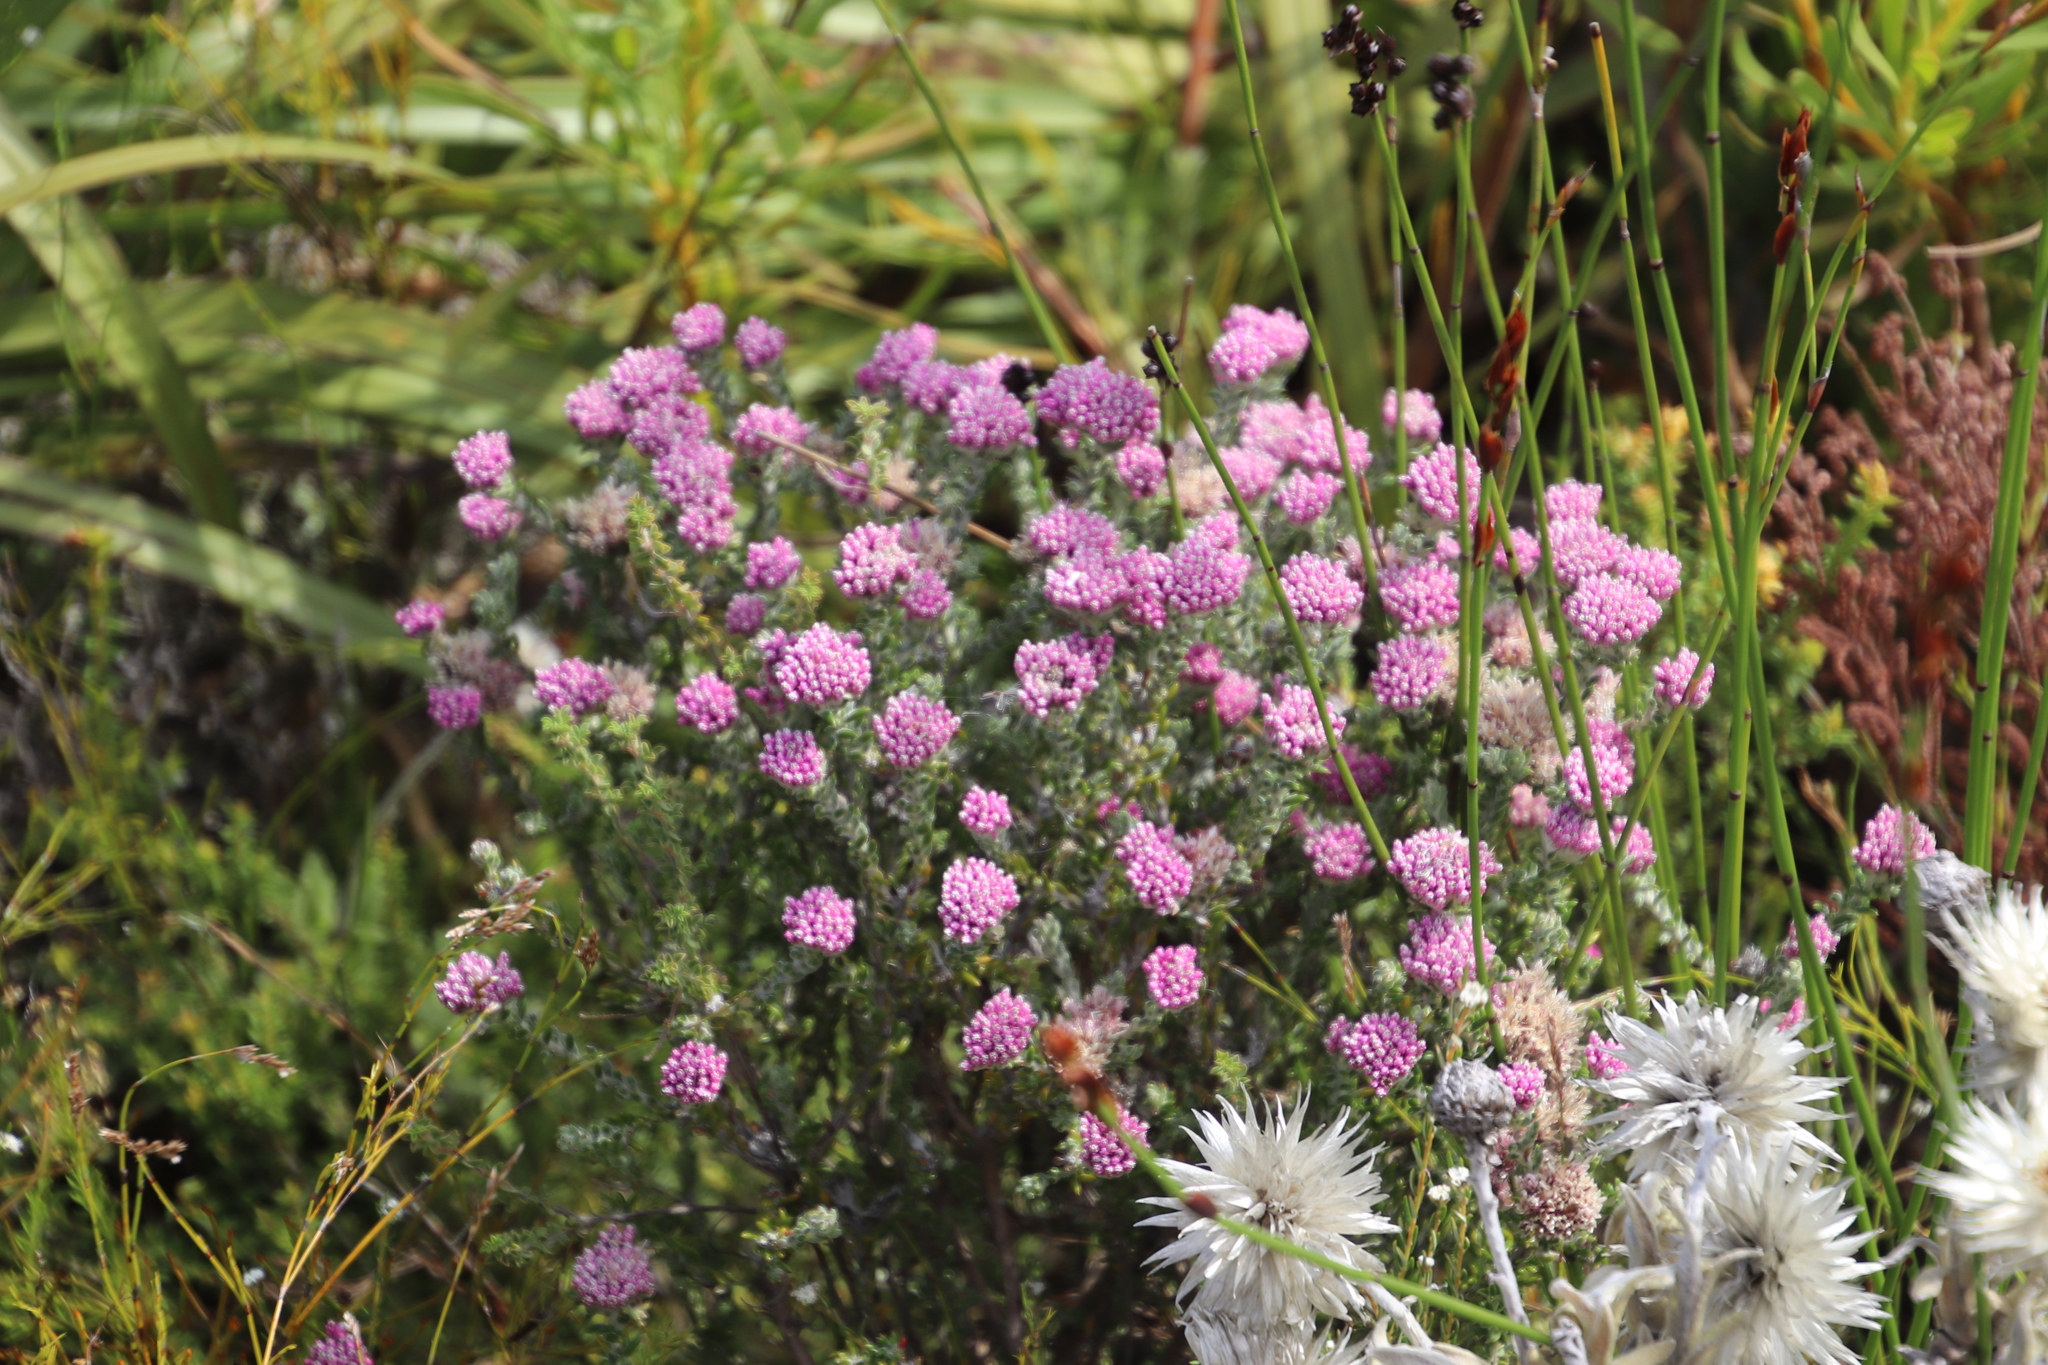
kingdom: Plantae
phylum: Tracheophyta
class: Magnoliopsida
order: Asterales
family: Asteraceae
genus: Metalasia
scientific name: Metalasia erubescens
